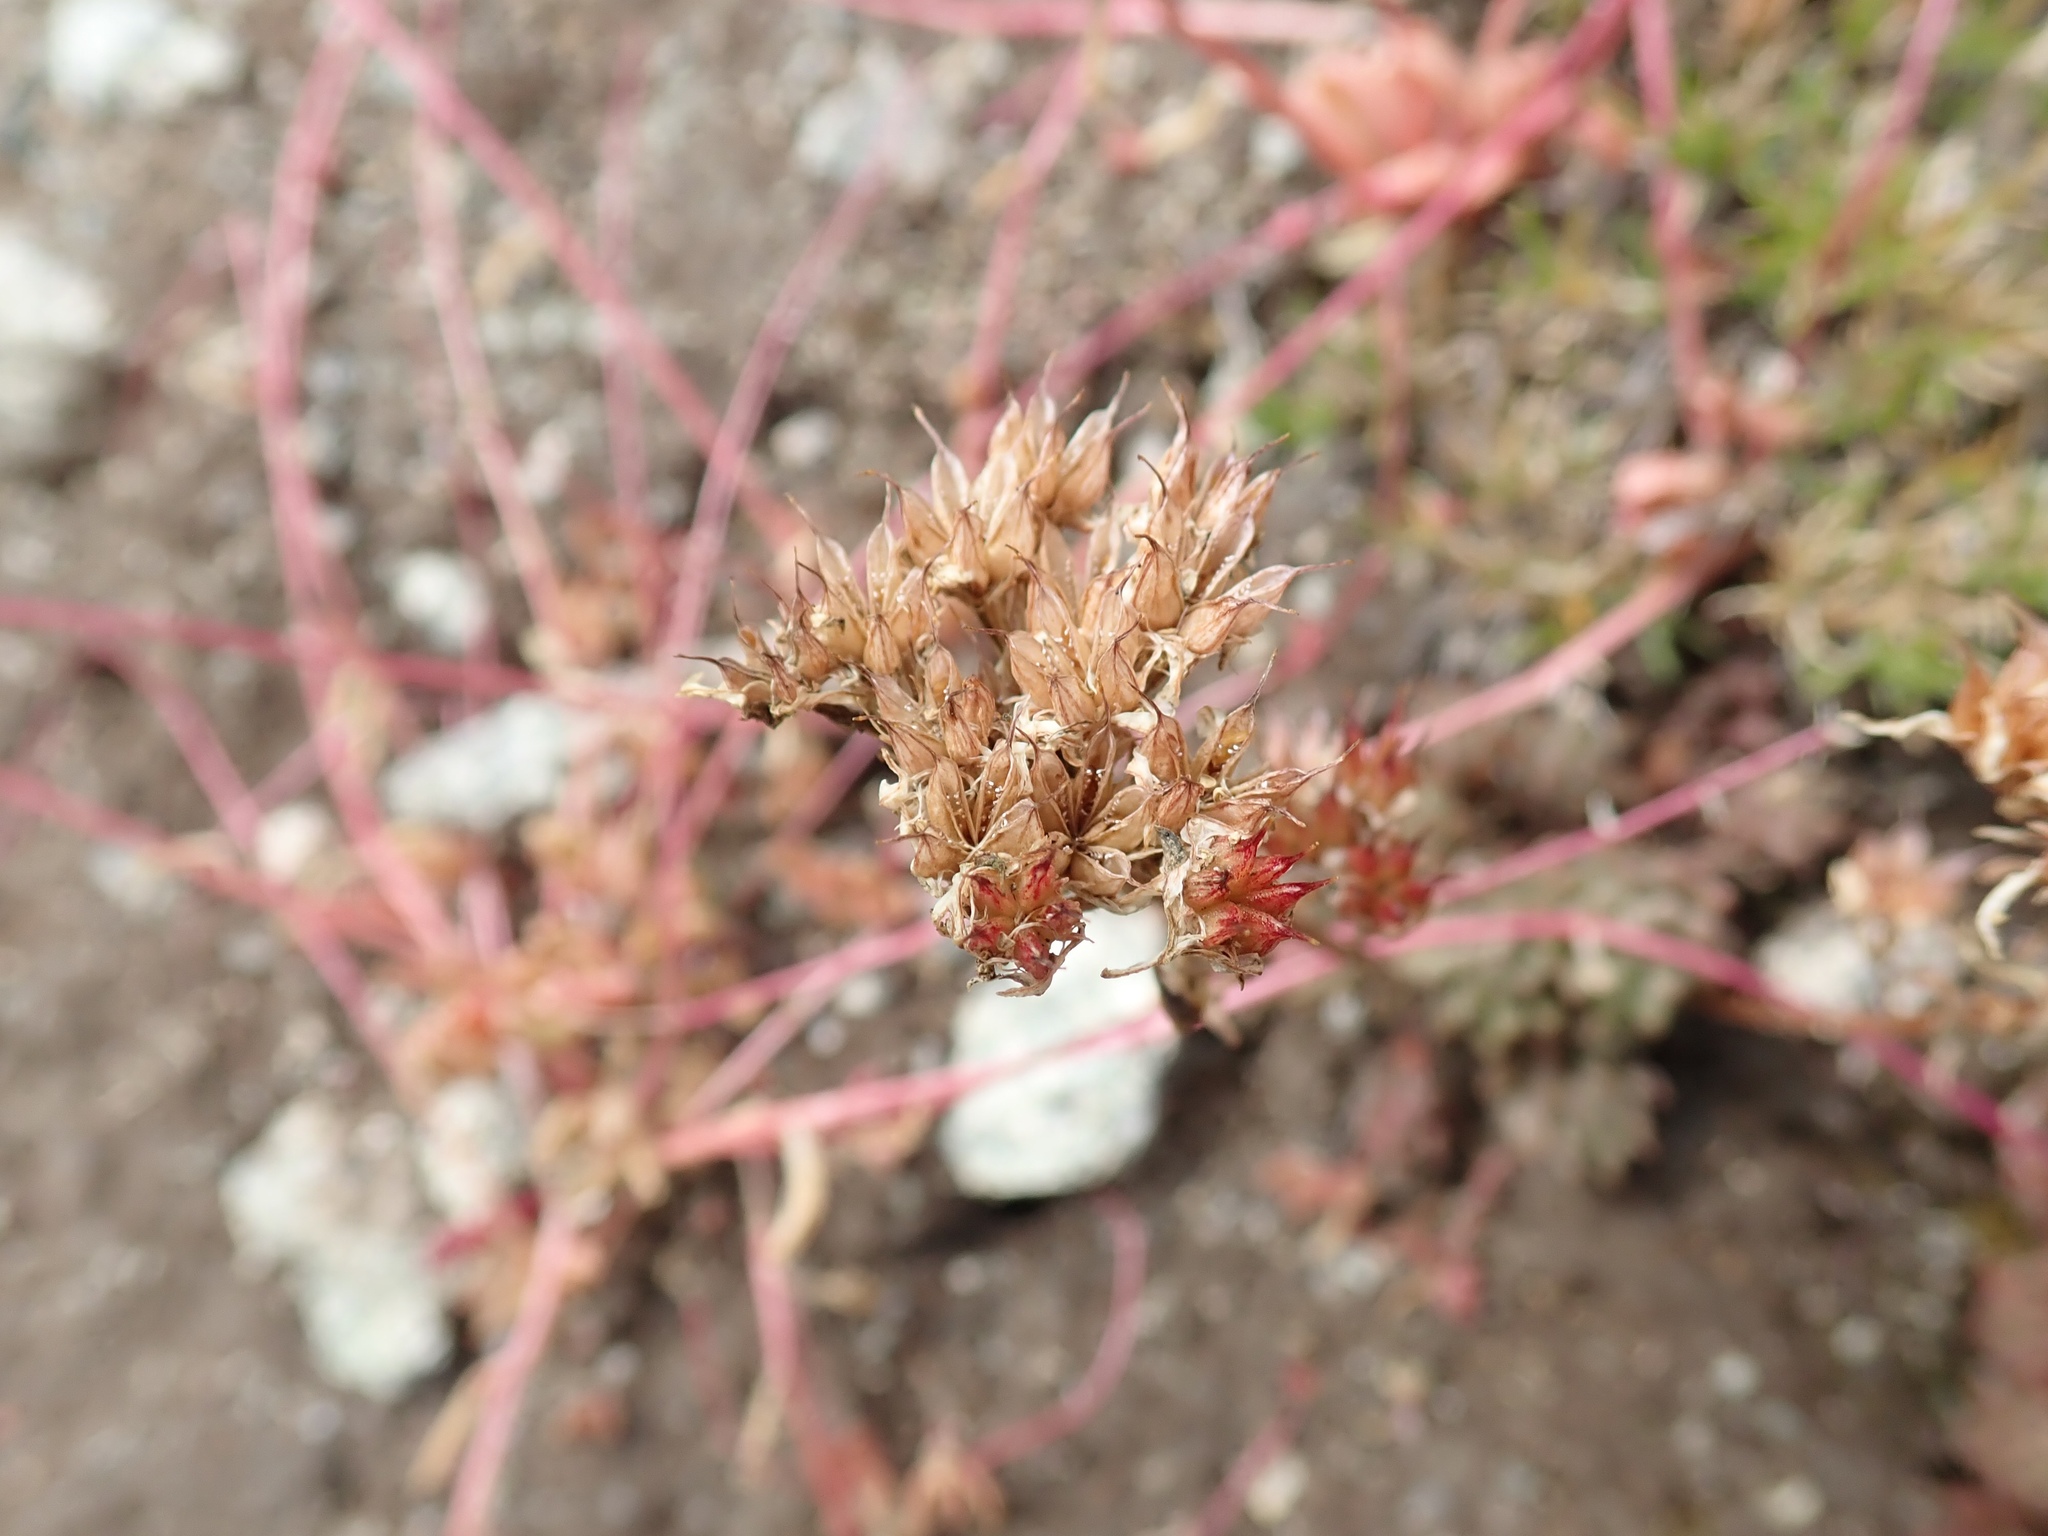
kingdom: Plantae
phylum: Tracheophyta
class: Magnoliopsida
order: Saxifragales
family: Crassulaceae
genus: Sedum
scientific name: Sedum lanceolatum
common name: Common stonecrop
